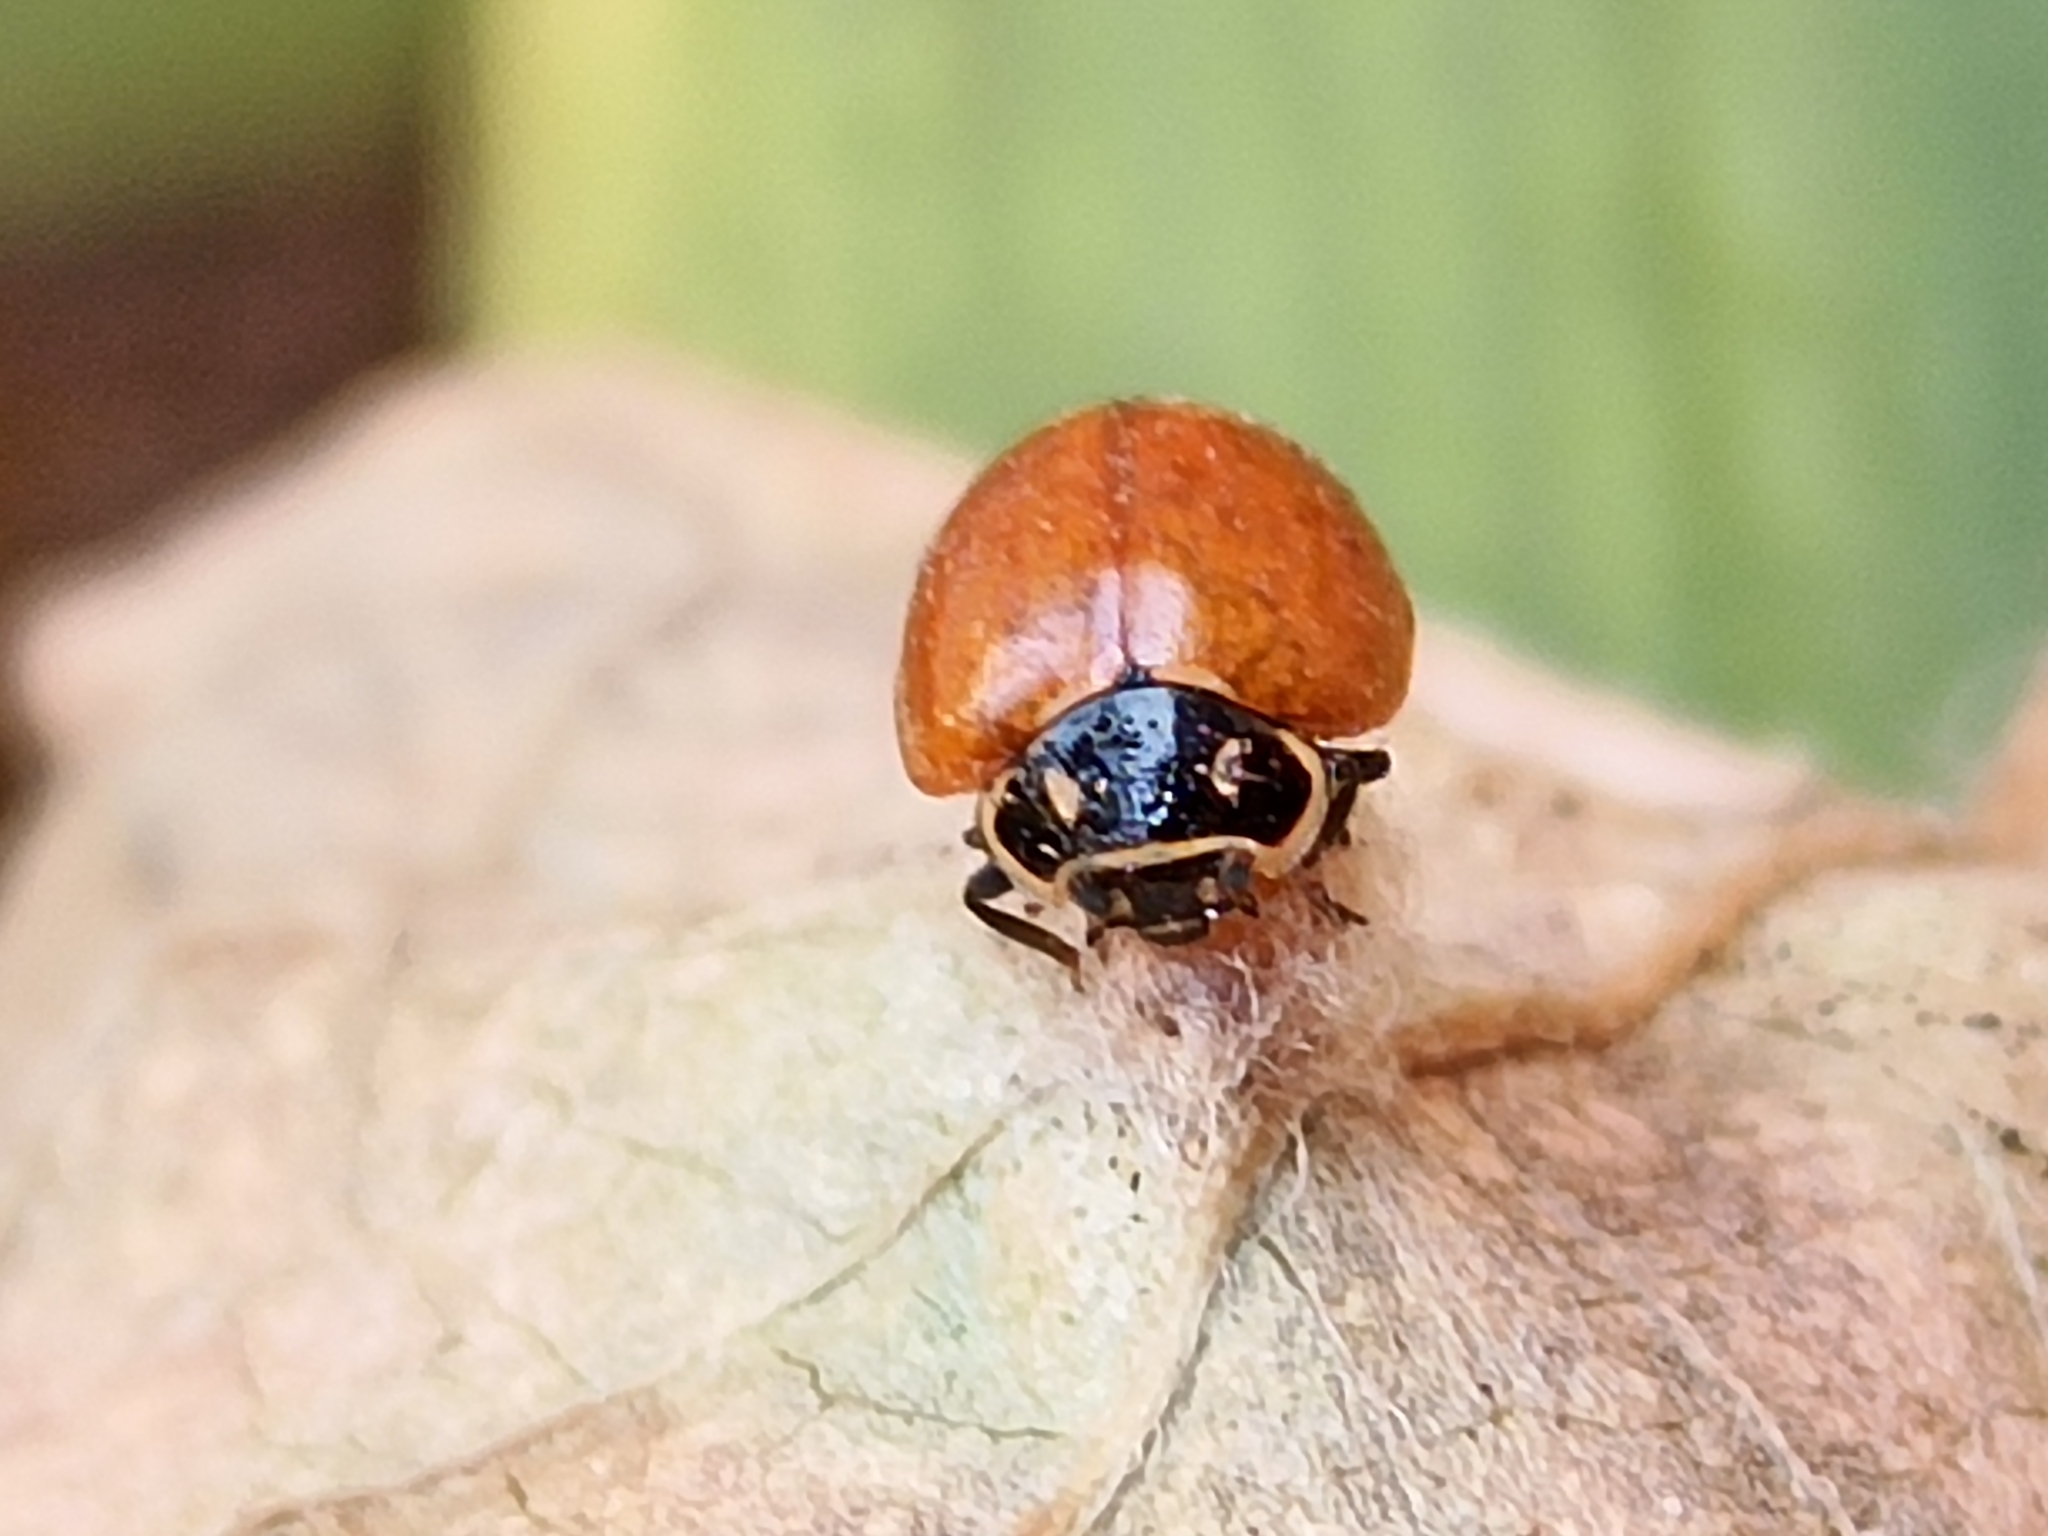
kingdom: Animalia
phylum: Arthropoda
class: Insecta
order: Coleoptera
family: Coccinellidae
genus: Cycloneda
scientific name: Cycloneda emarginata
